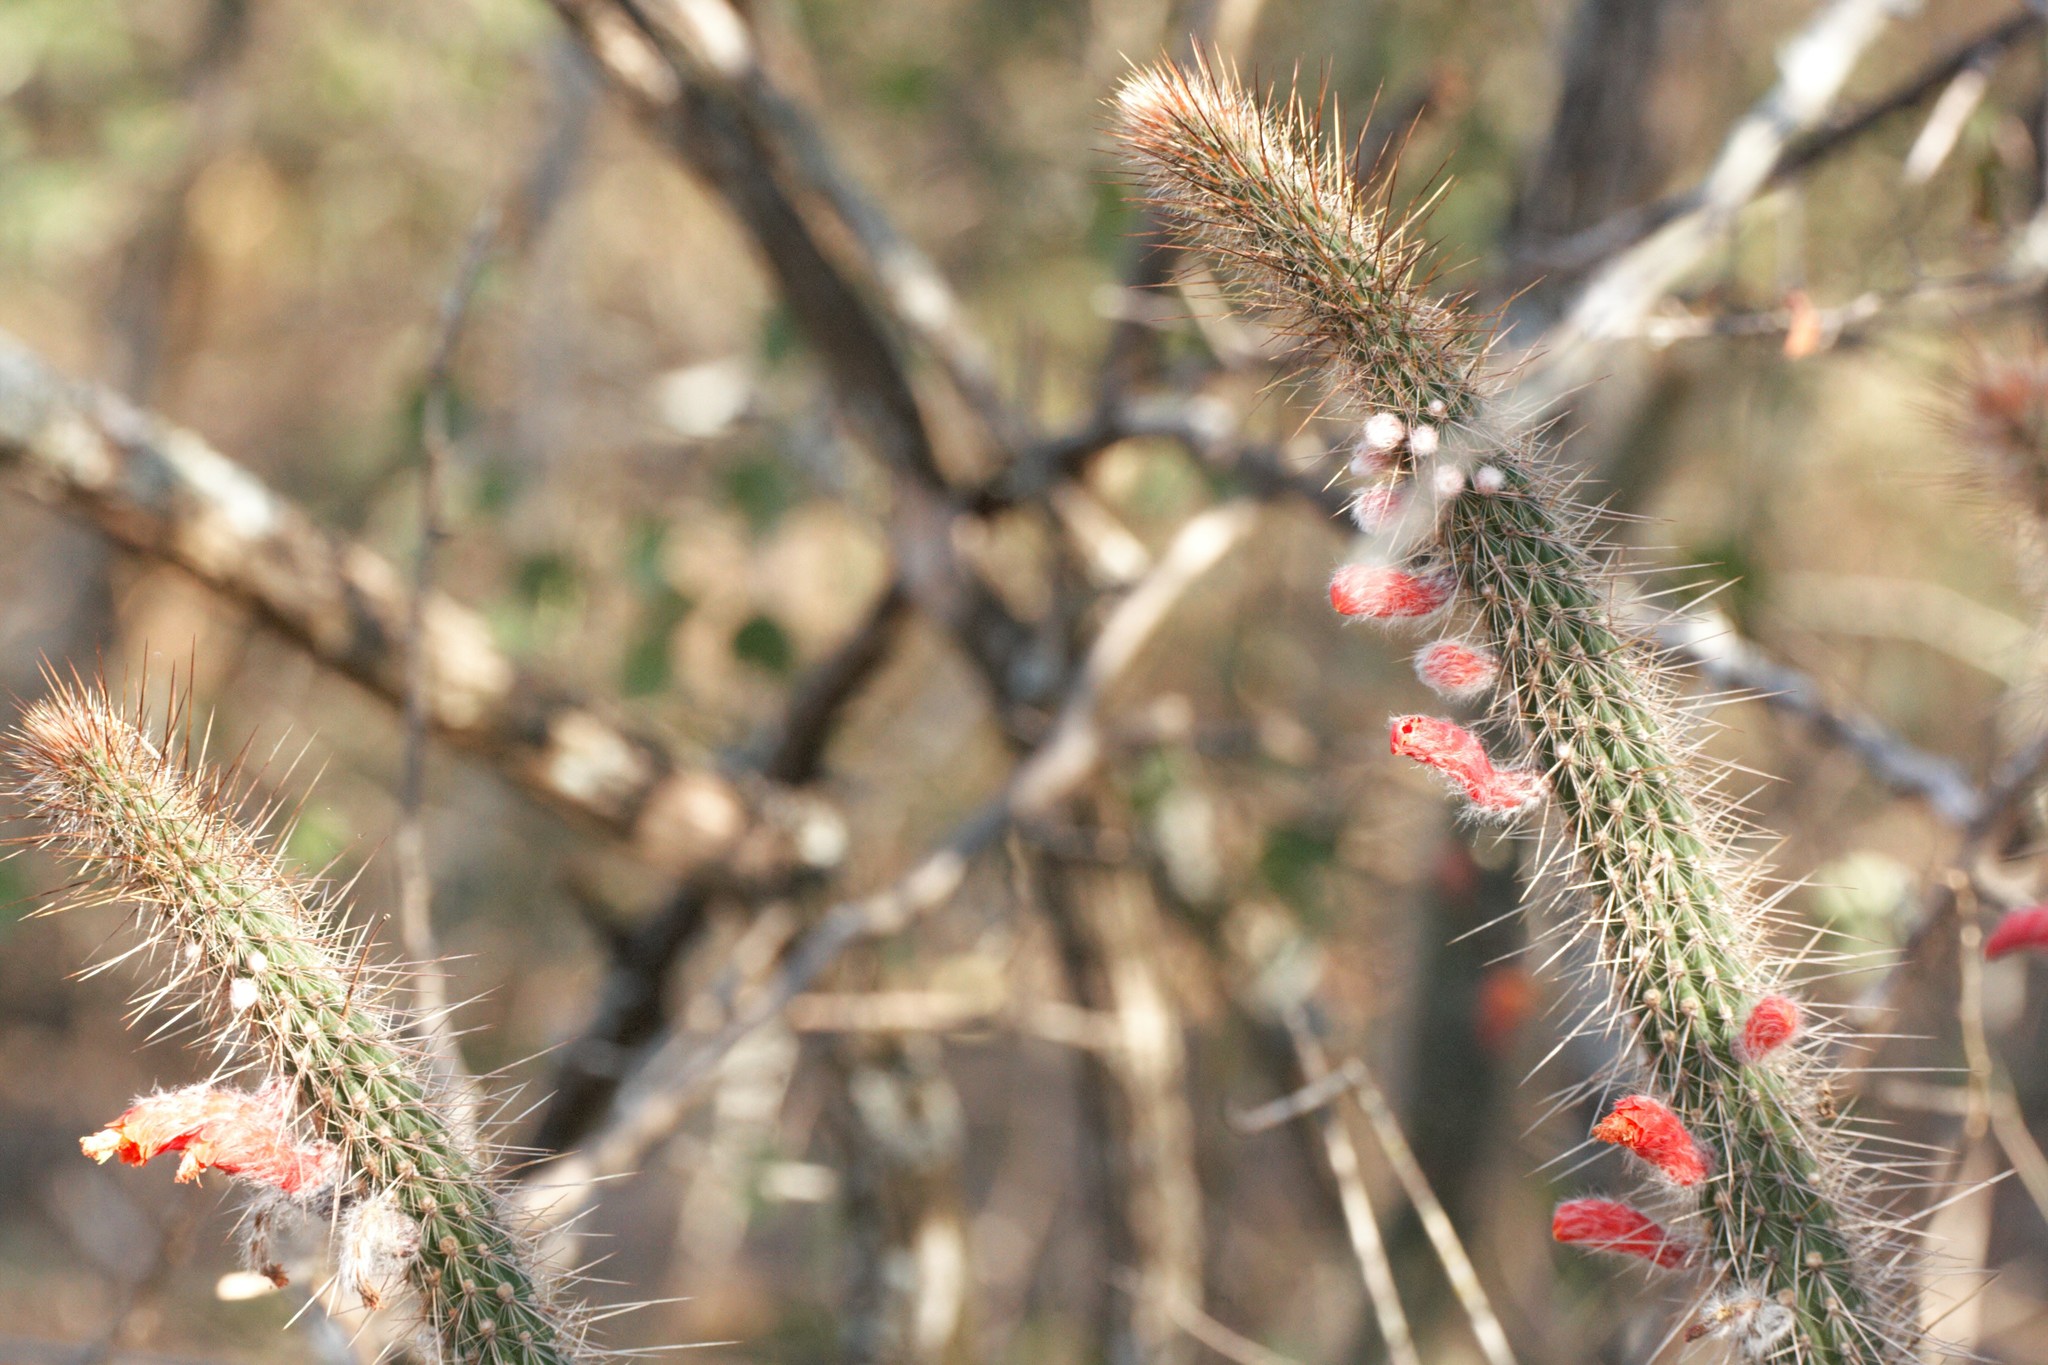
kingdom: Plantae
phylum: Tracheophyta
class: Magnoliopsida
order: Caryophyllales
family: Cactaceae
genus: Cleistocactus
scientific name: Cleistocactus baumannii
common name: Scarlet-bugler
